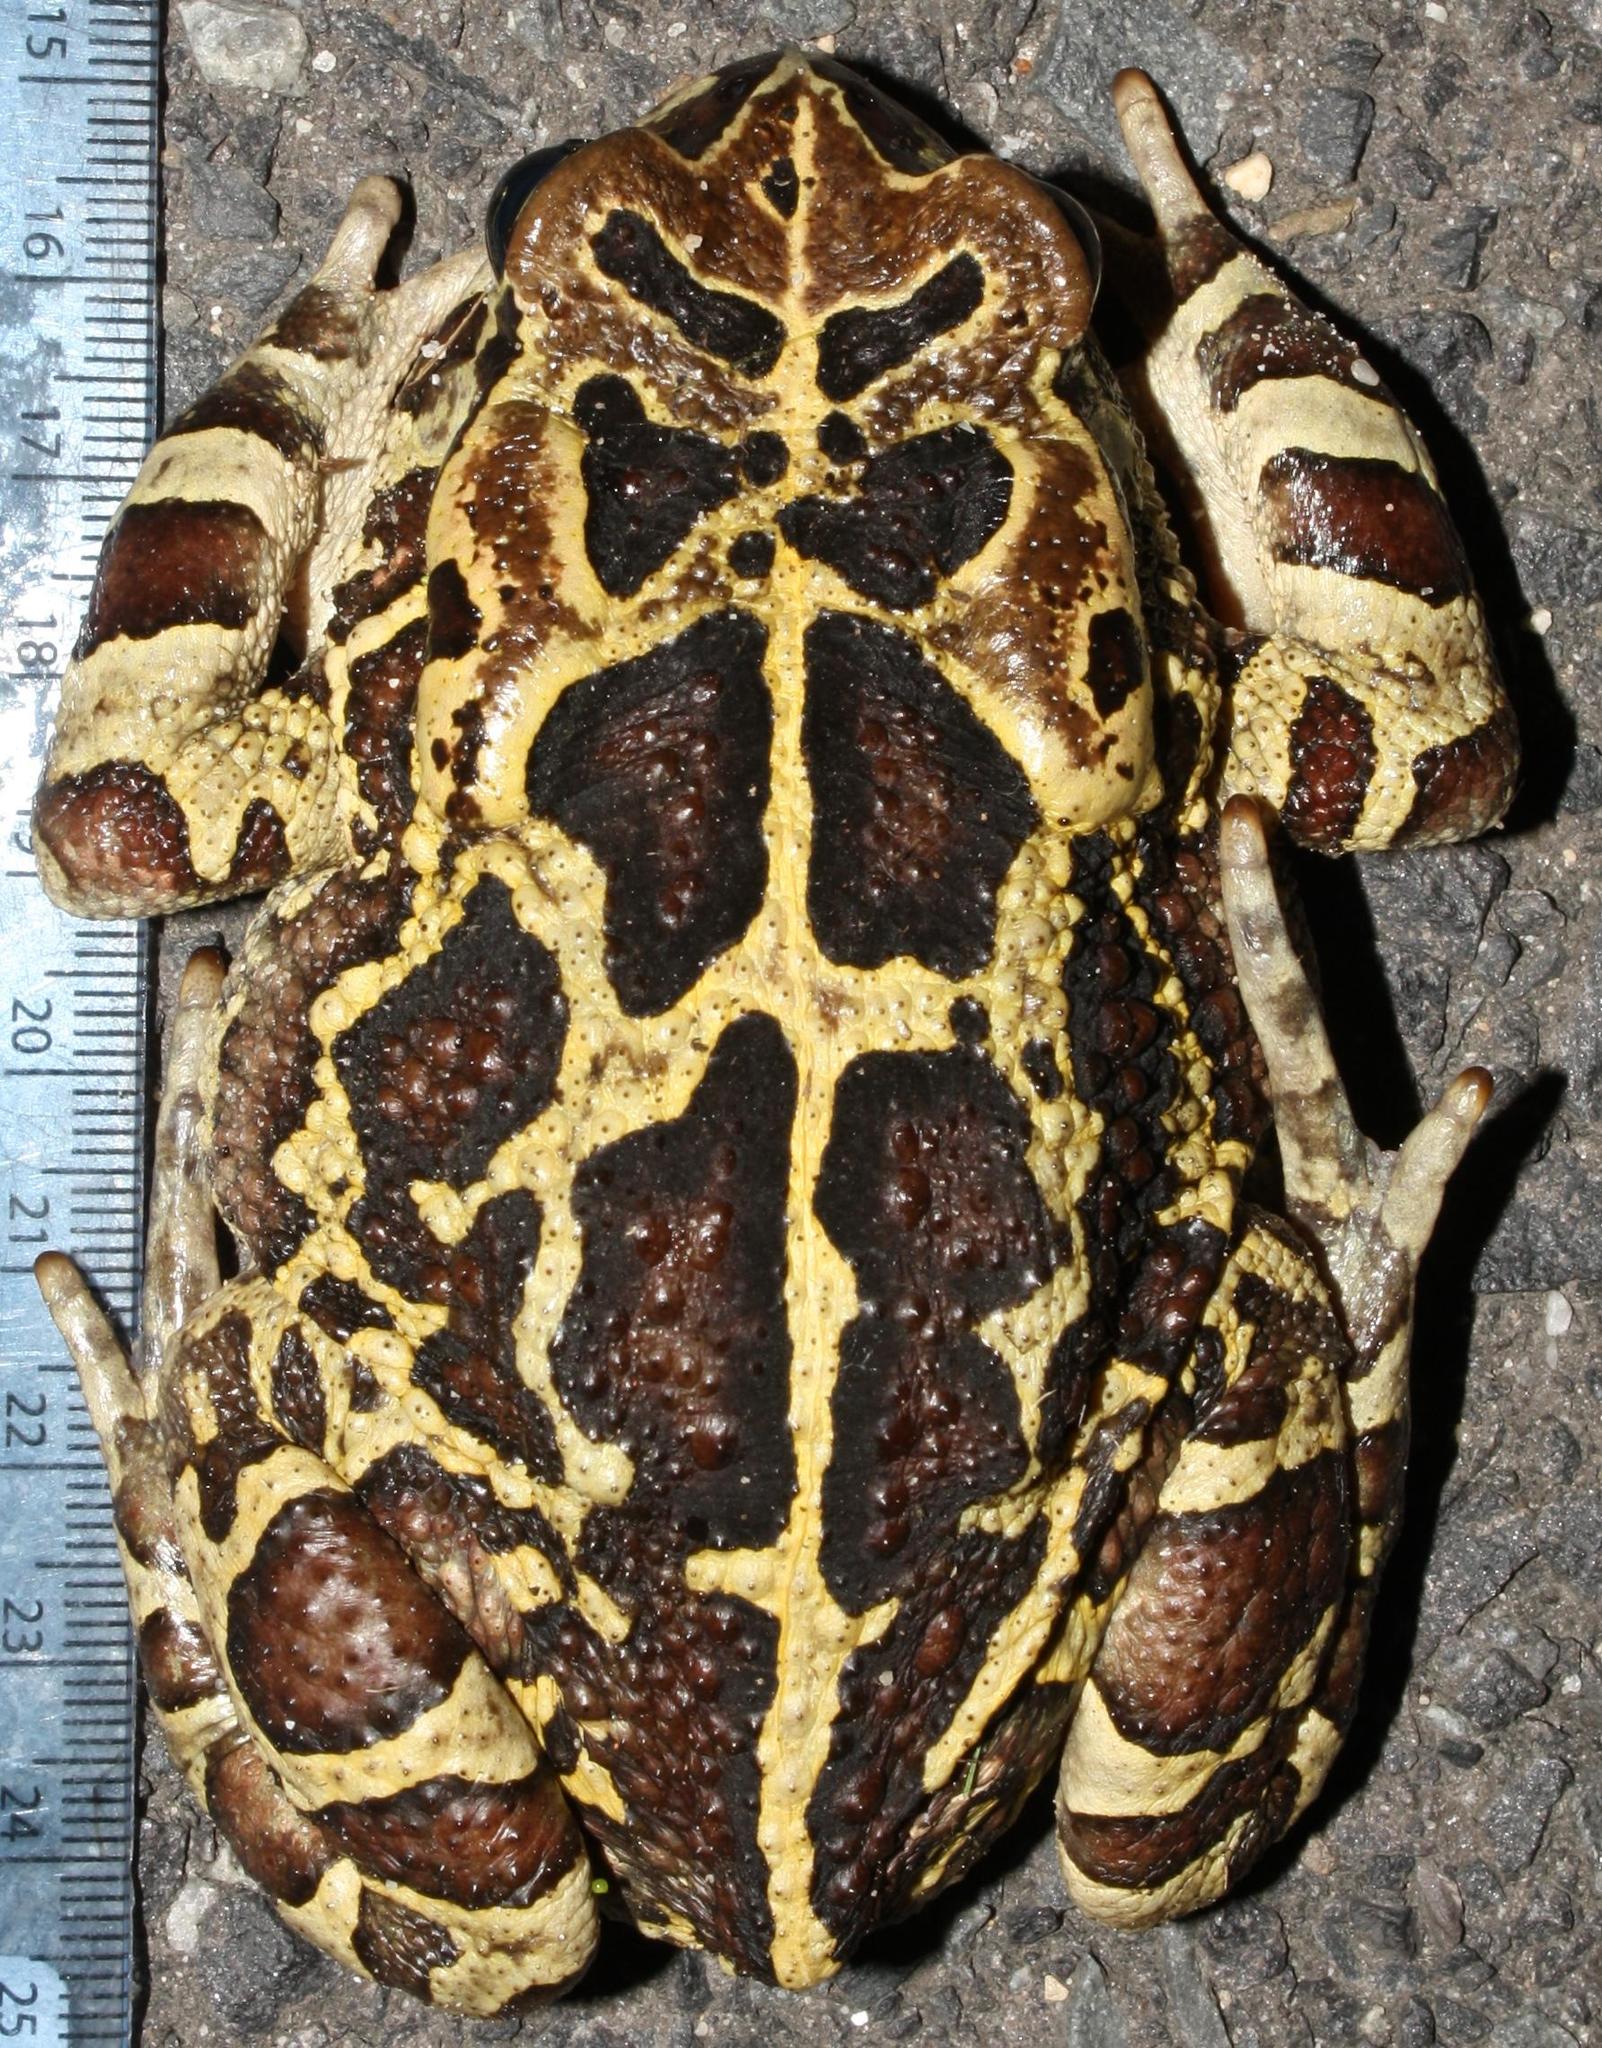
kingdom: Animalia
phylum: Chordata
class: Amphibia
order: Anura
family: Bufonidae
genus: Sclerophrys
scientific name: Sclerophrys pantherina
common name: Panther toad
